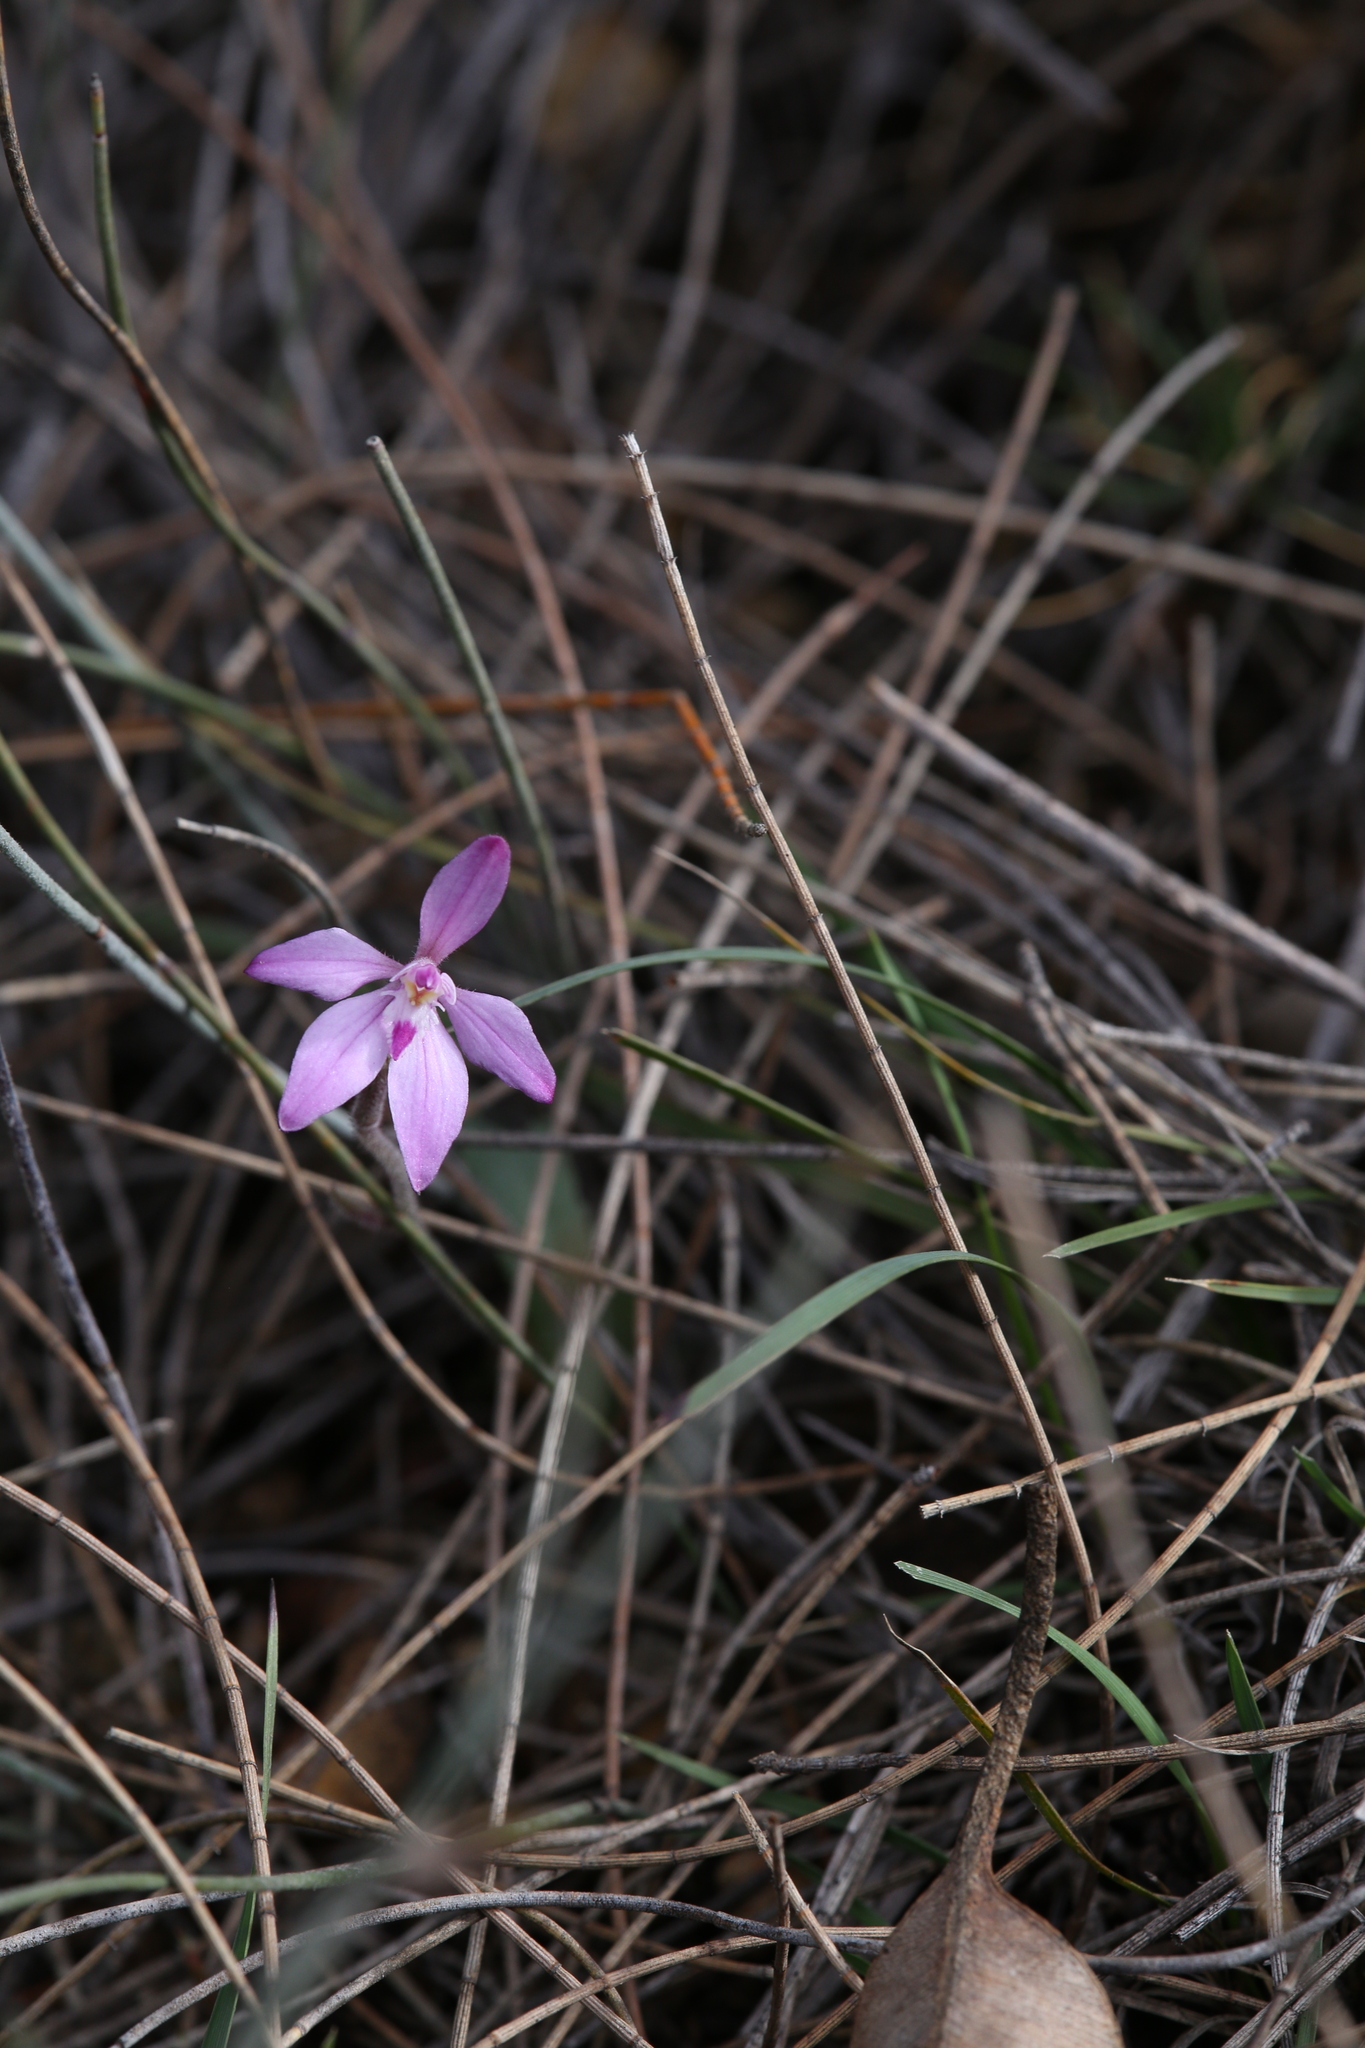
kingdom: Plantae
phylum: Tracheophyta
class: Liliopsida
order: Asparagales
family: Orchidaceae
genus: Caladenia
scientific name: Caladenia reptans
